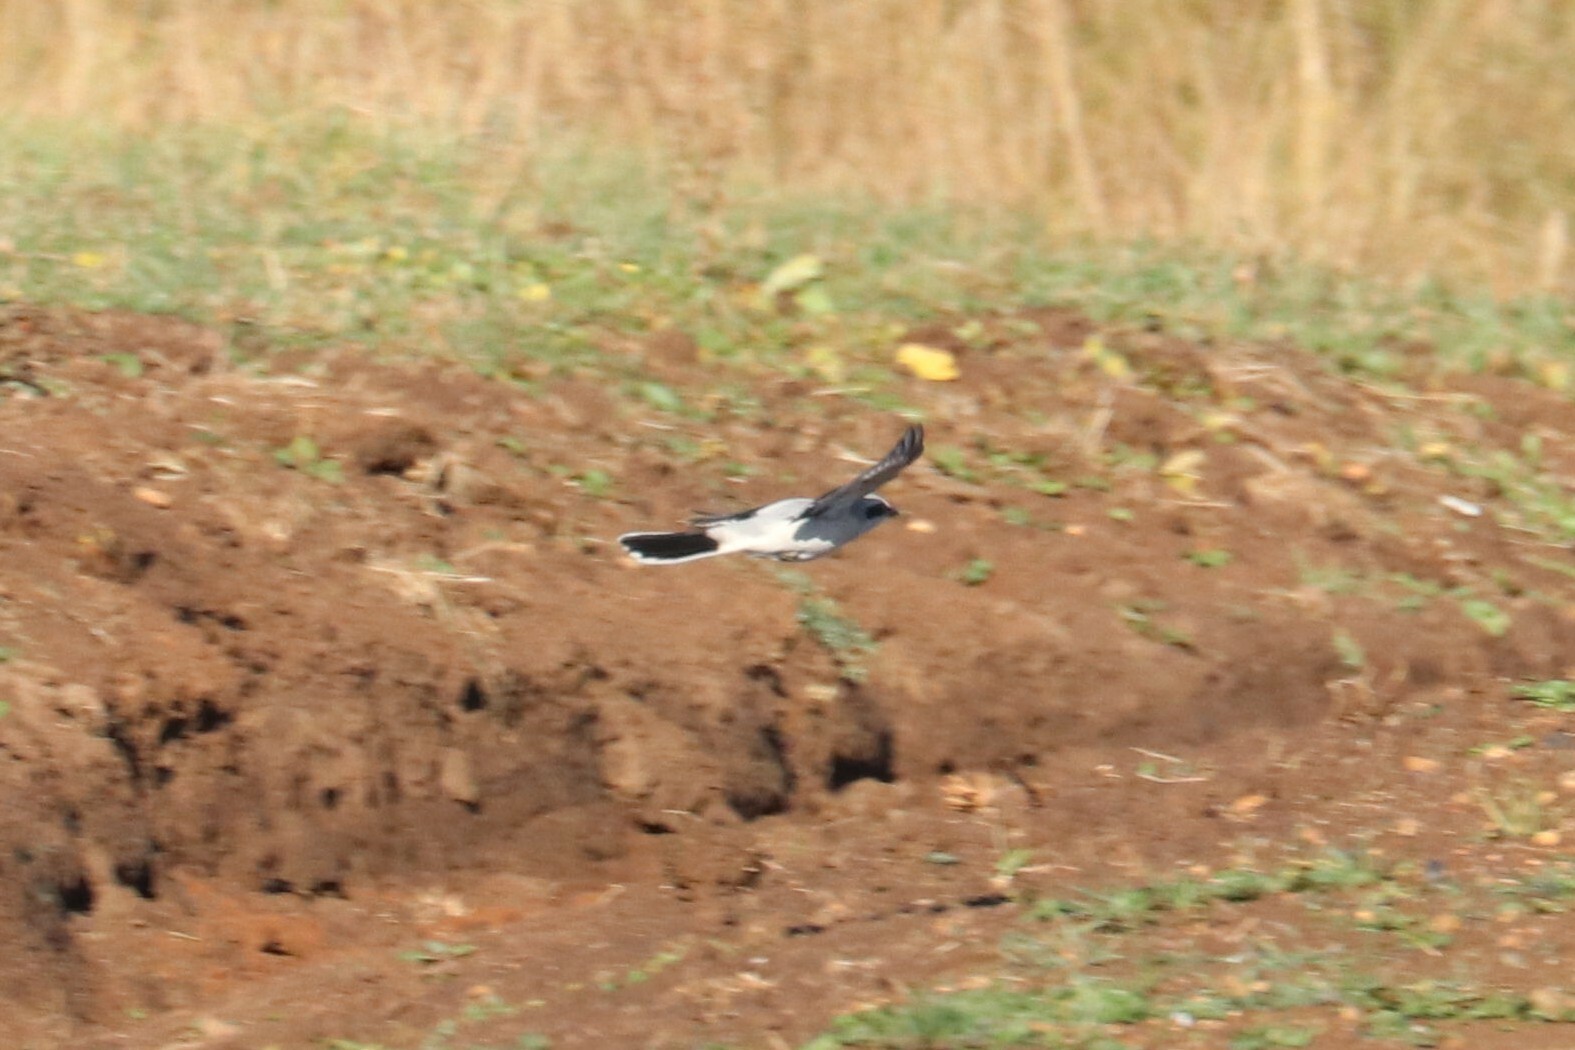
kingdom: Animalia
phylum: Chordata
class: Aves
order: Passeriformes
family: Laniidae
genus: Lanius
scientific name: Lanius excubitor
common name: Great grey shrike
